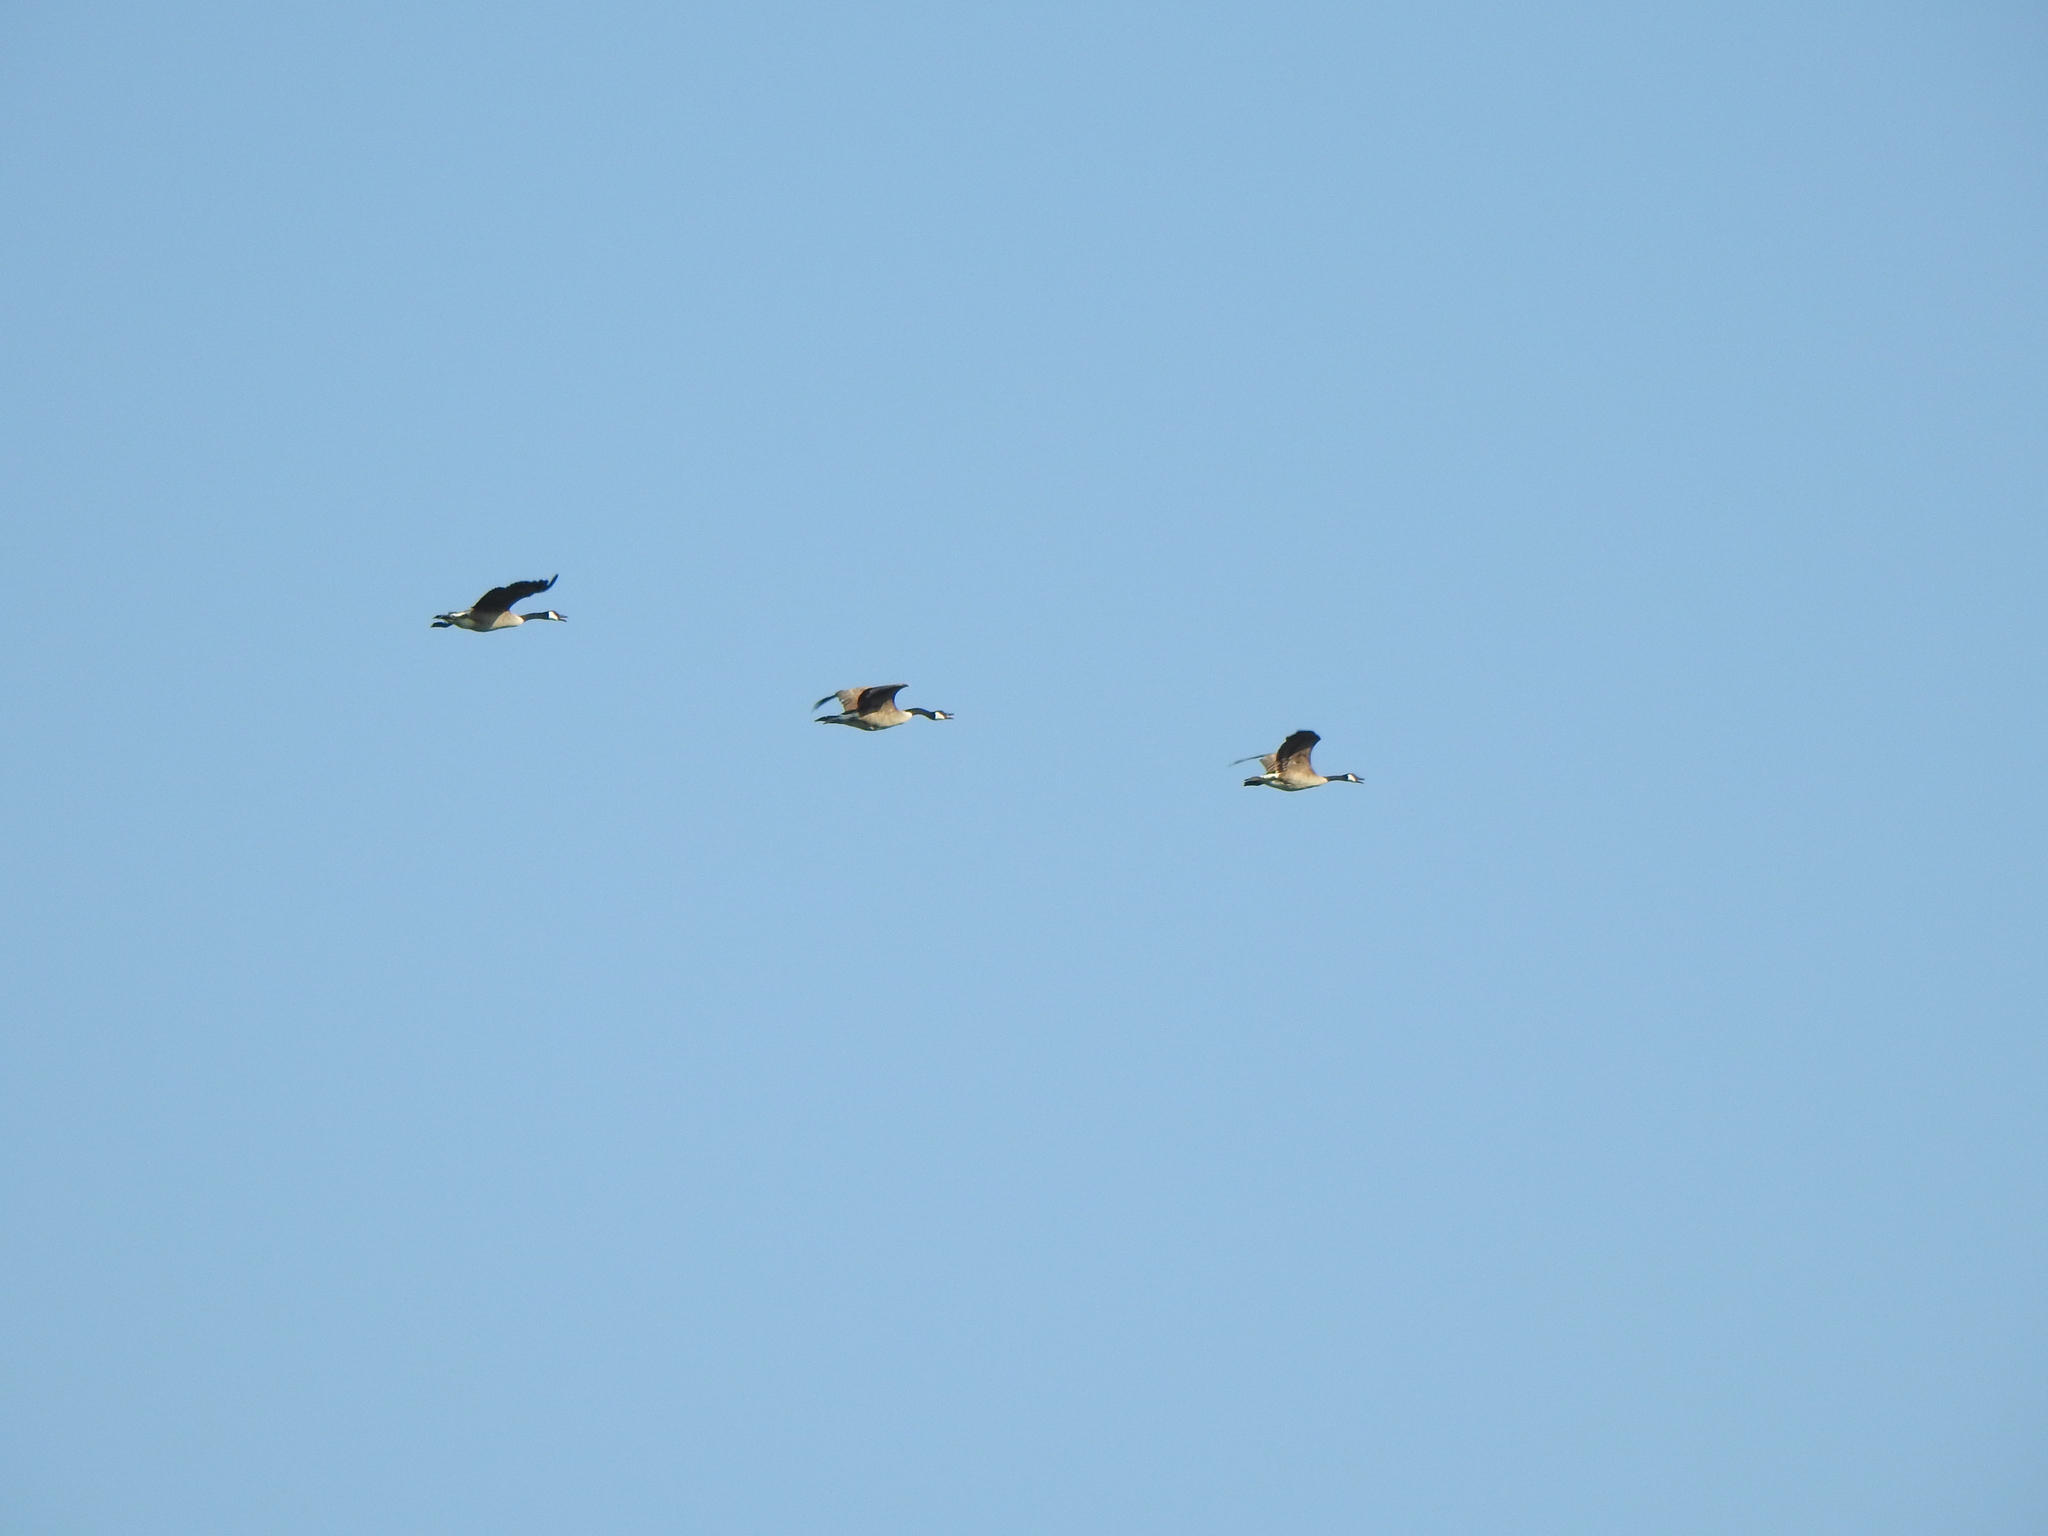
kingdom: Animalia
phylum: Chordata
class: Aves
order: Anseriformes
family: Anatidae
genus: Branta
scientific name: Branta canadensis
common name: Canada goose
